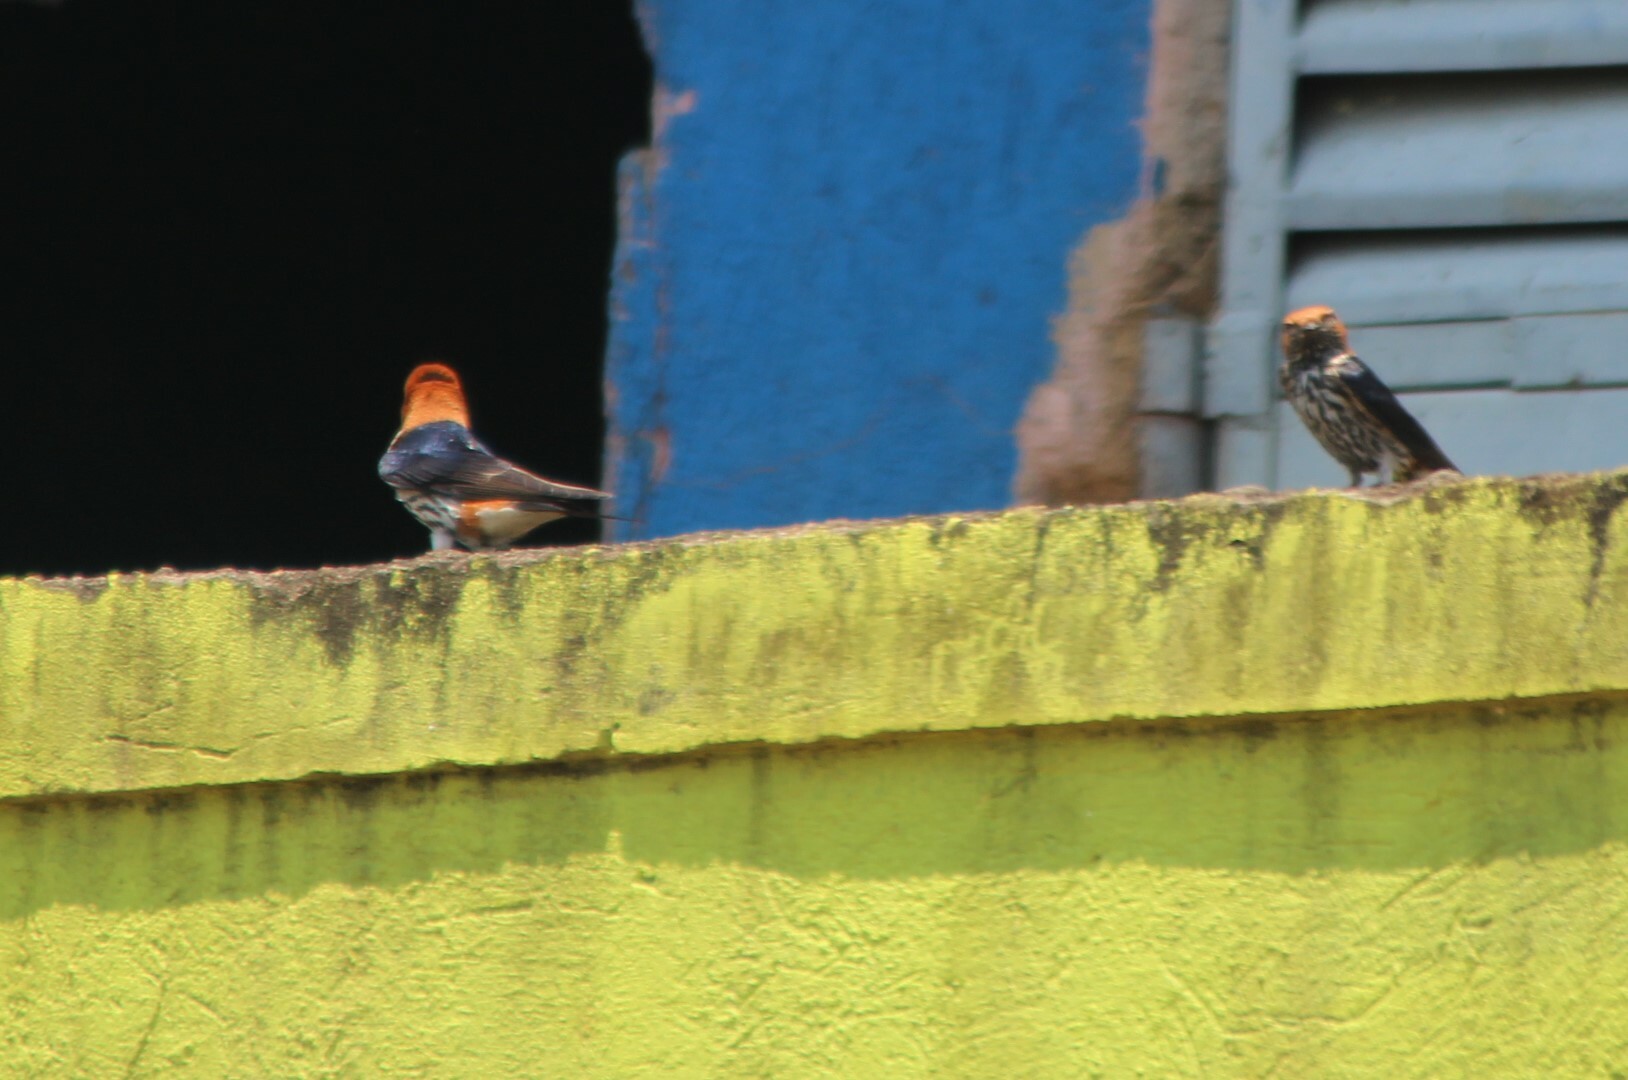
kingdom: Animalia
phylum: Chordata
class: Aves
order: Passeriformes
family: Hirundinidae
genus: Cecropis
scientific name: Cecropis abyssinica
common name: Lesser striped-swallow
